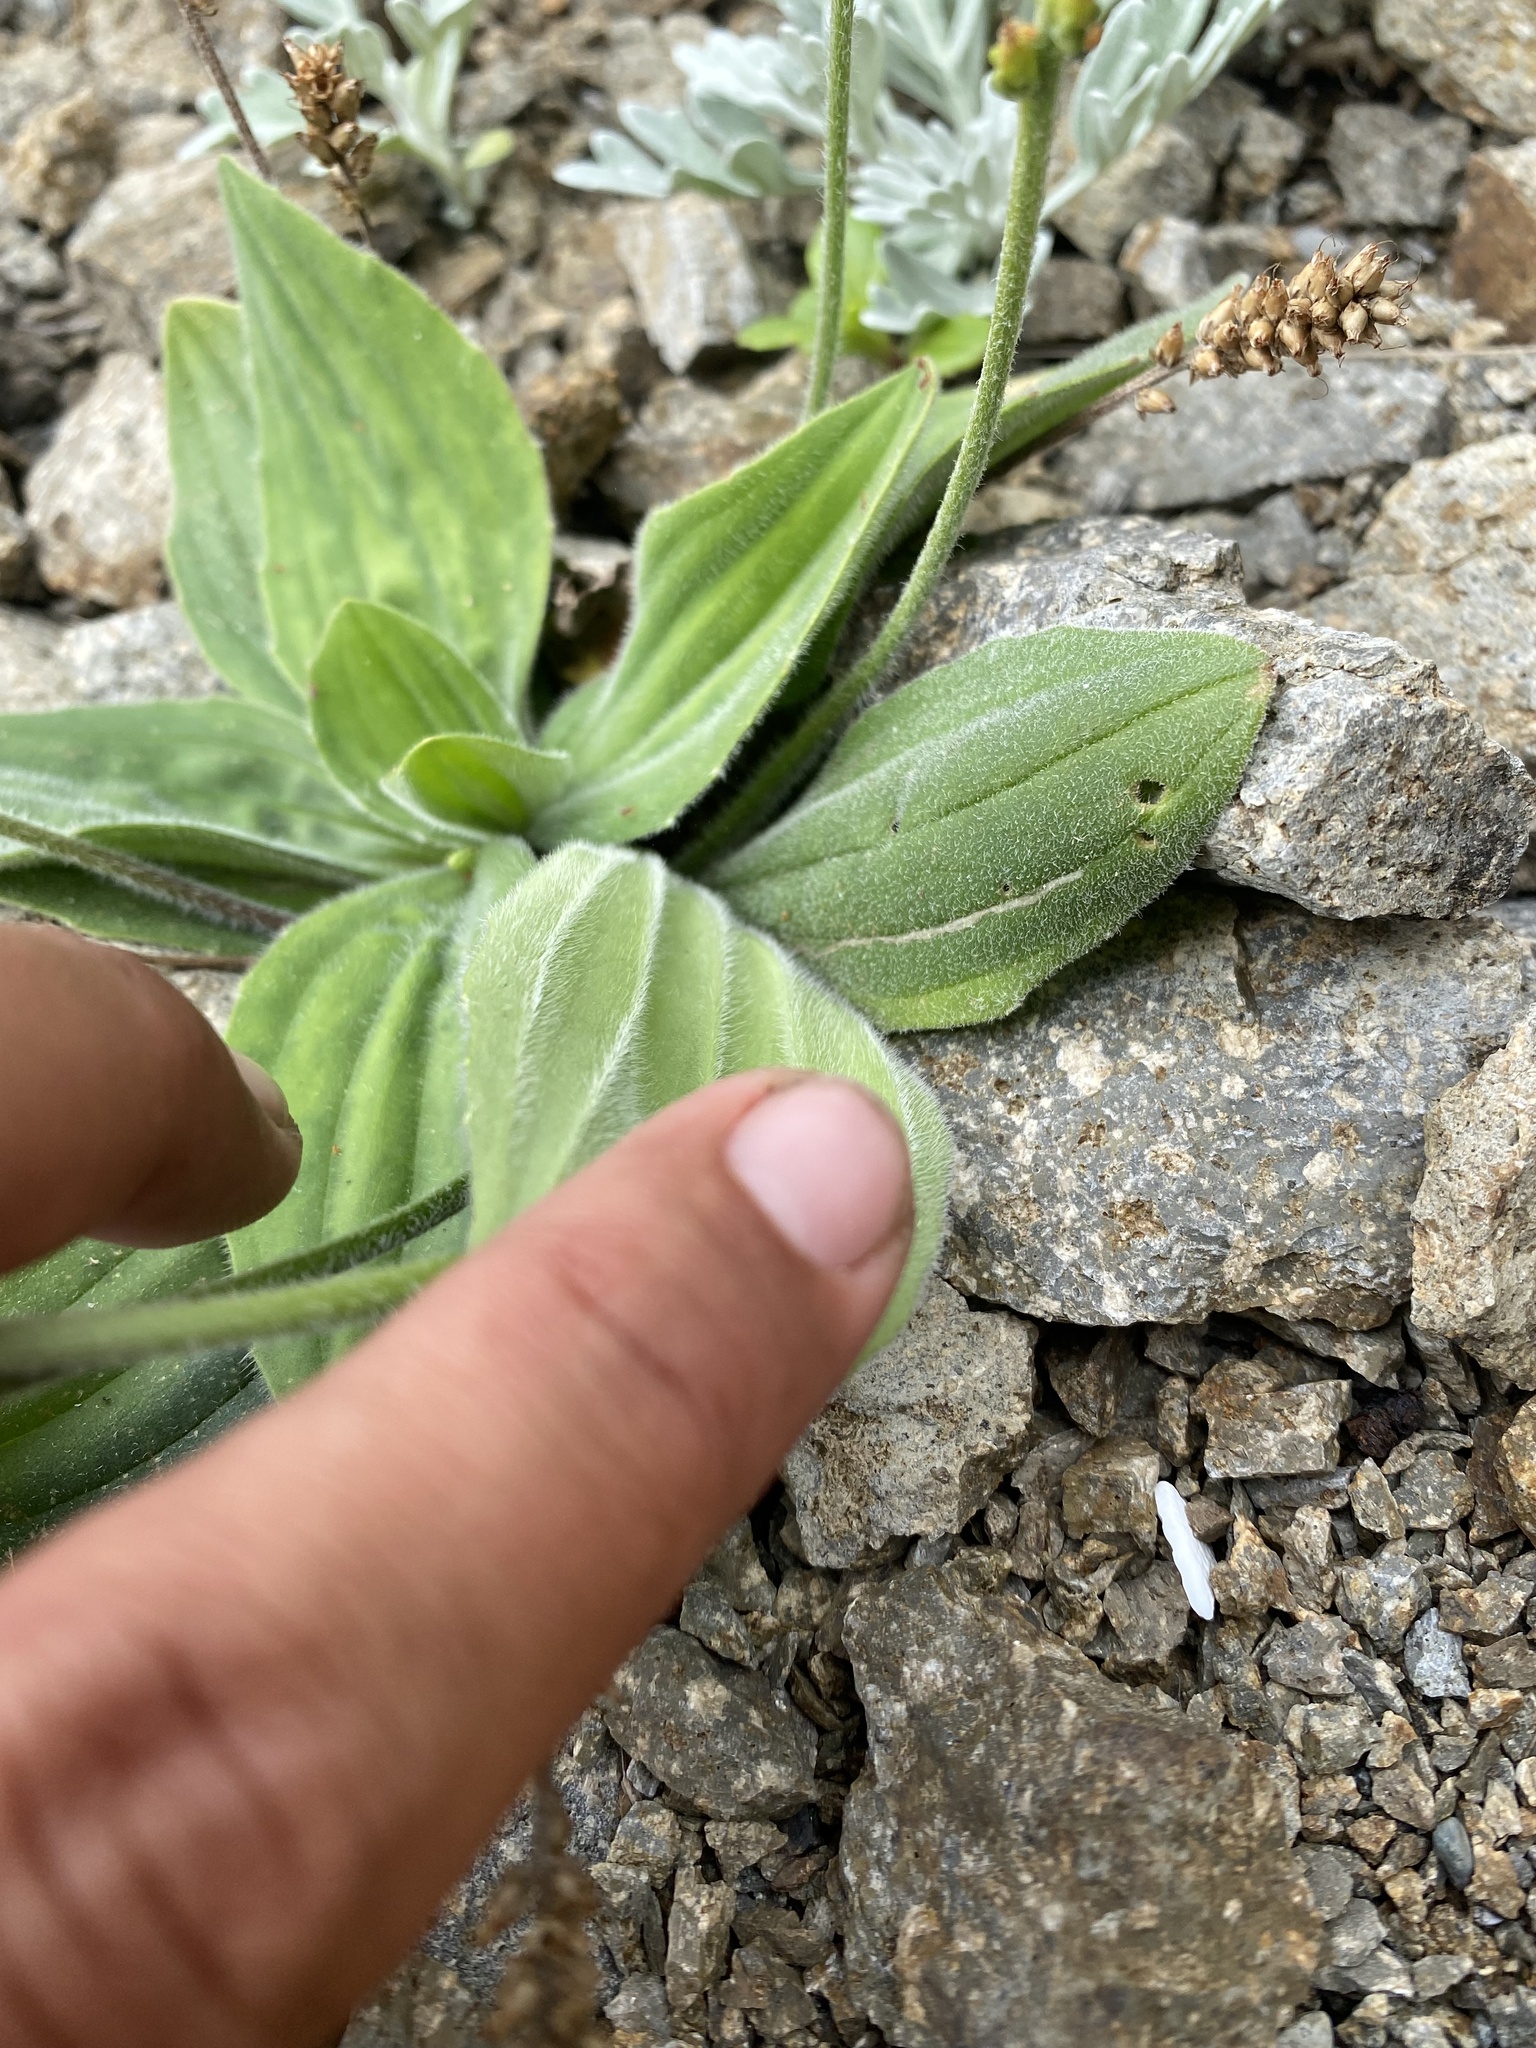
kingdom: Plantae
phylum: Tracheophyta
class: Magnoliopsida
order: Lamiales
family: Plantaginaceae
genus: Plantago
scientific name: Plantago camtschatica
